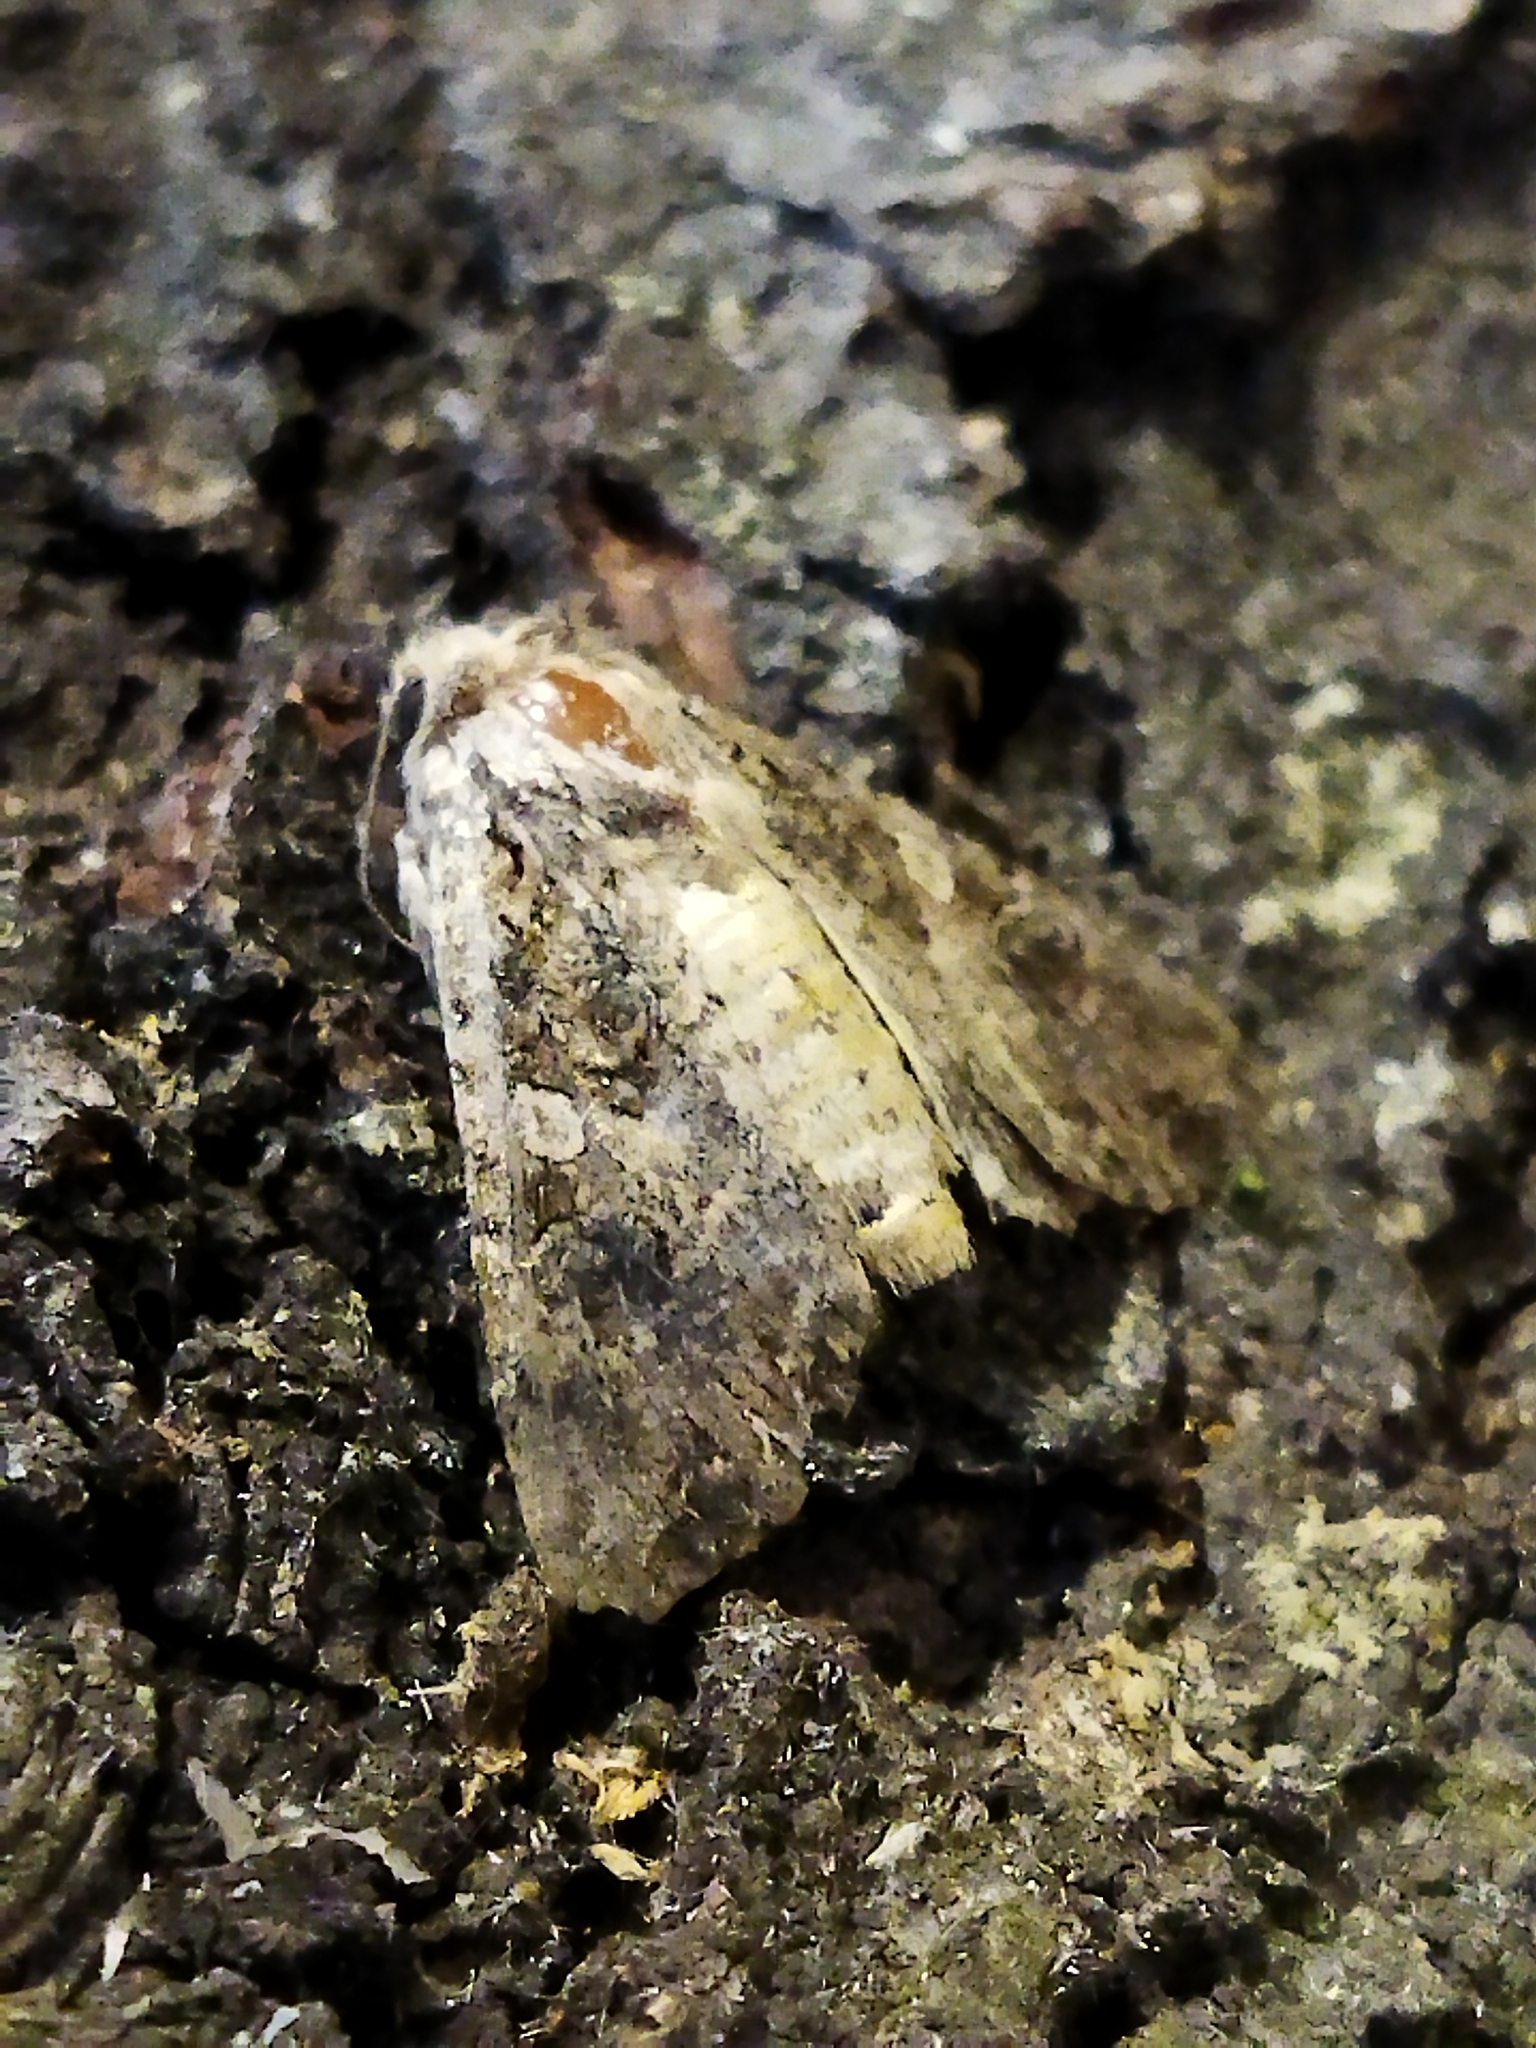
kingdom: Animalia
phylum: Arthropoda
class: Insecta
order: Lepidoptera
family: Noctuidae
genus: Anarta
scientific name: Anarta trifolii
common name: Clover cutworm moth
